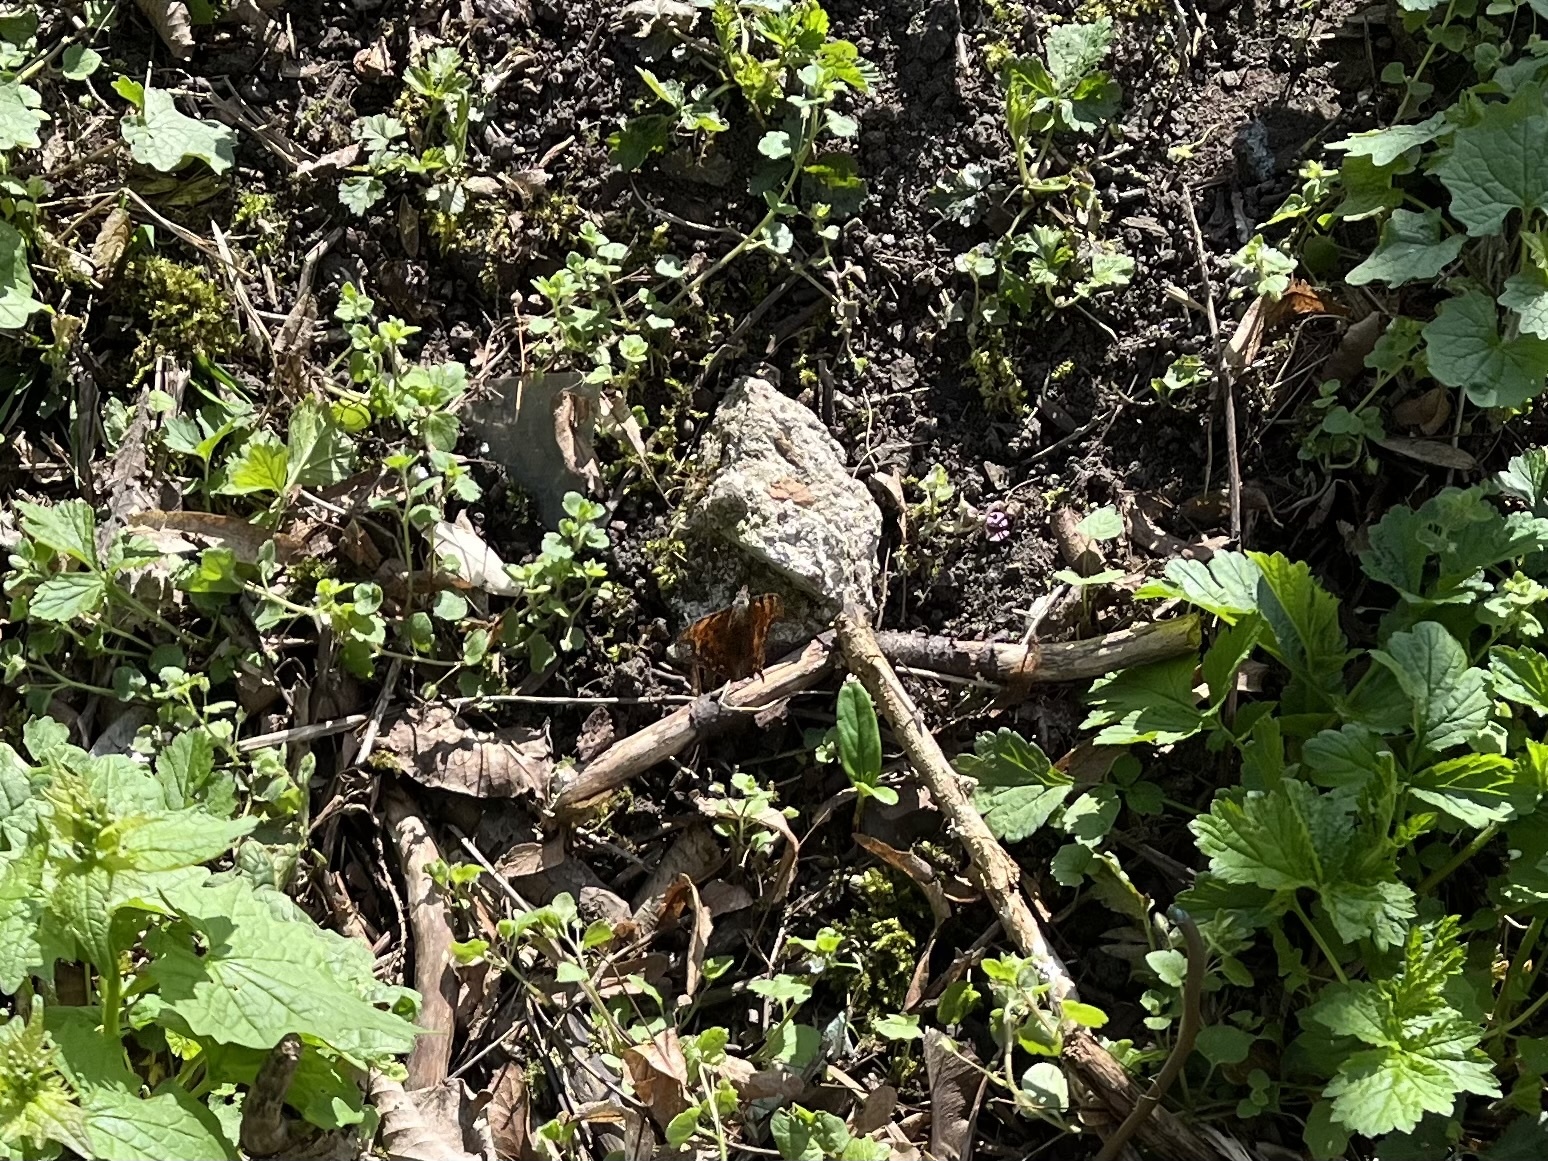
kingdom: Animalia
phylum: Arthropoda
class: Insecta
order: Lepidoptera
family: Nymphalidae
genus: Polygonia
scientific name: Polygonia c-album
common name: Comma
